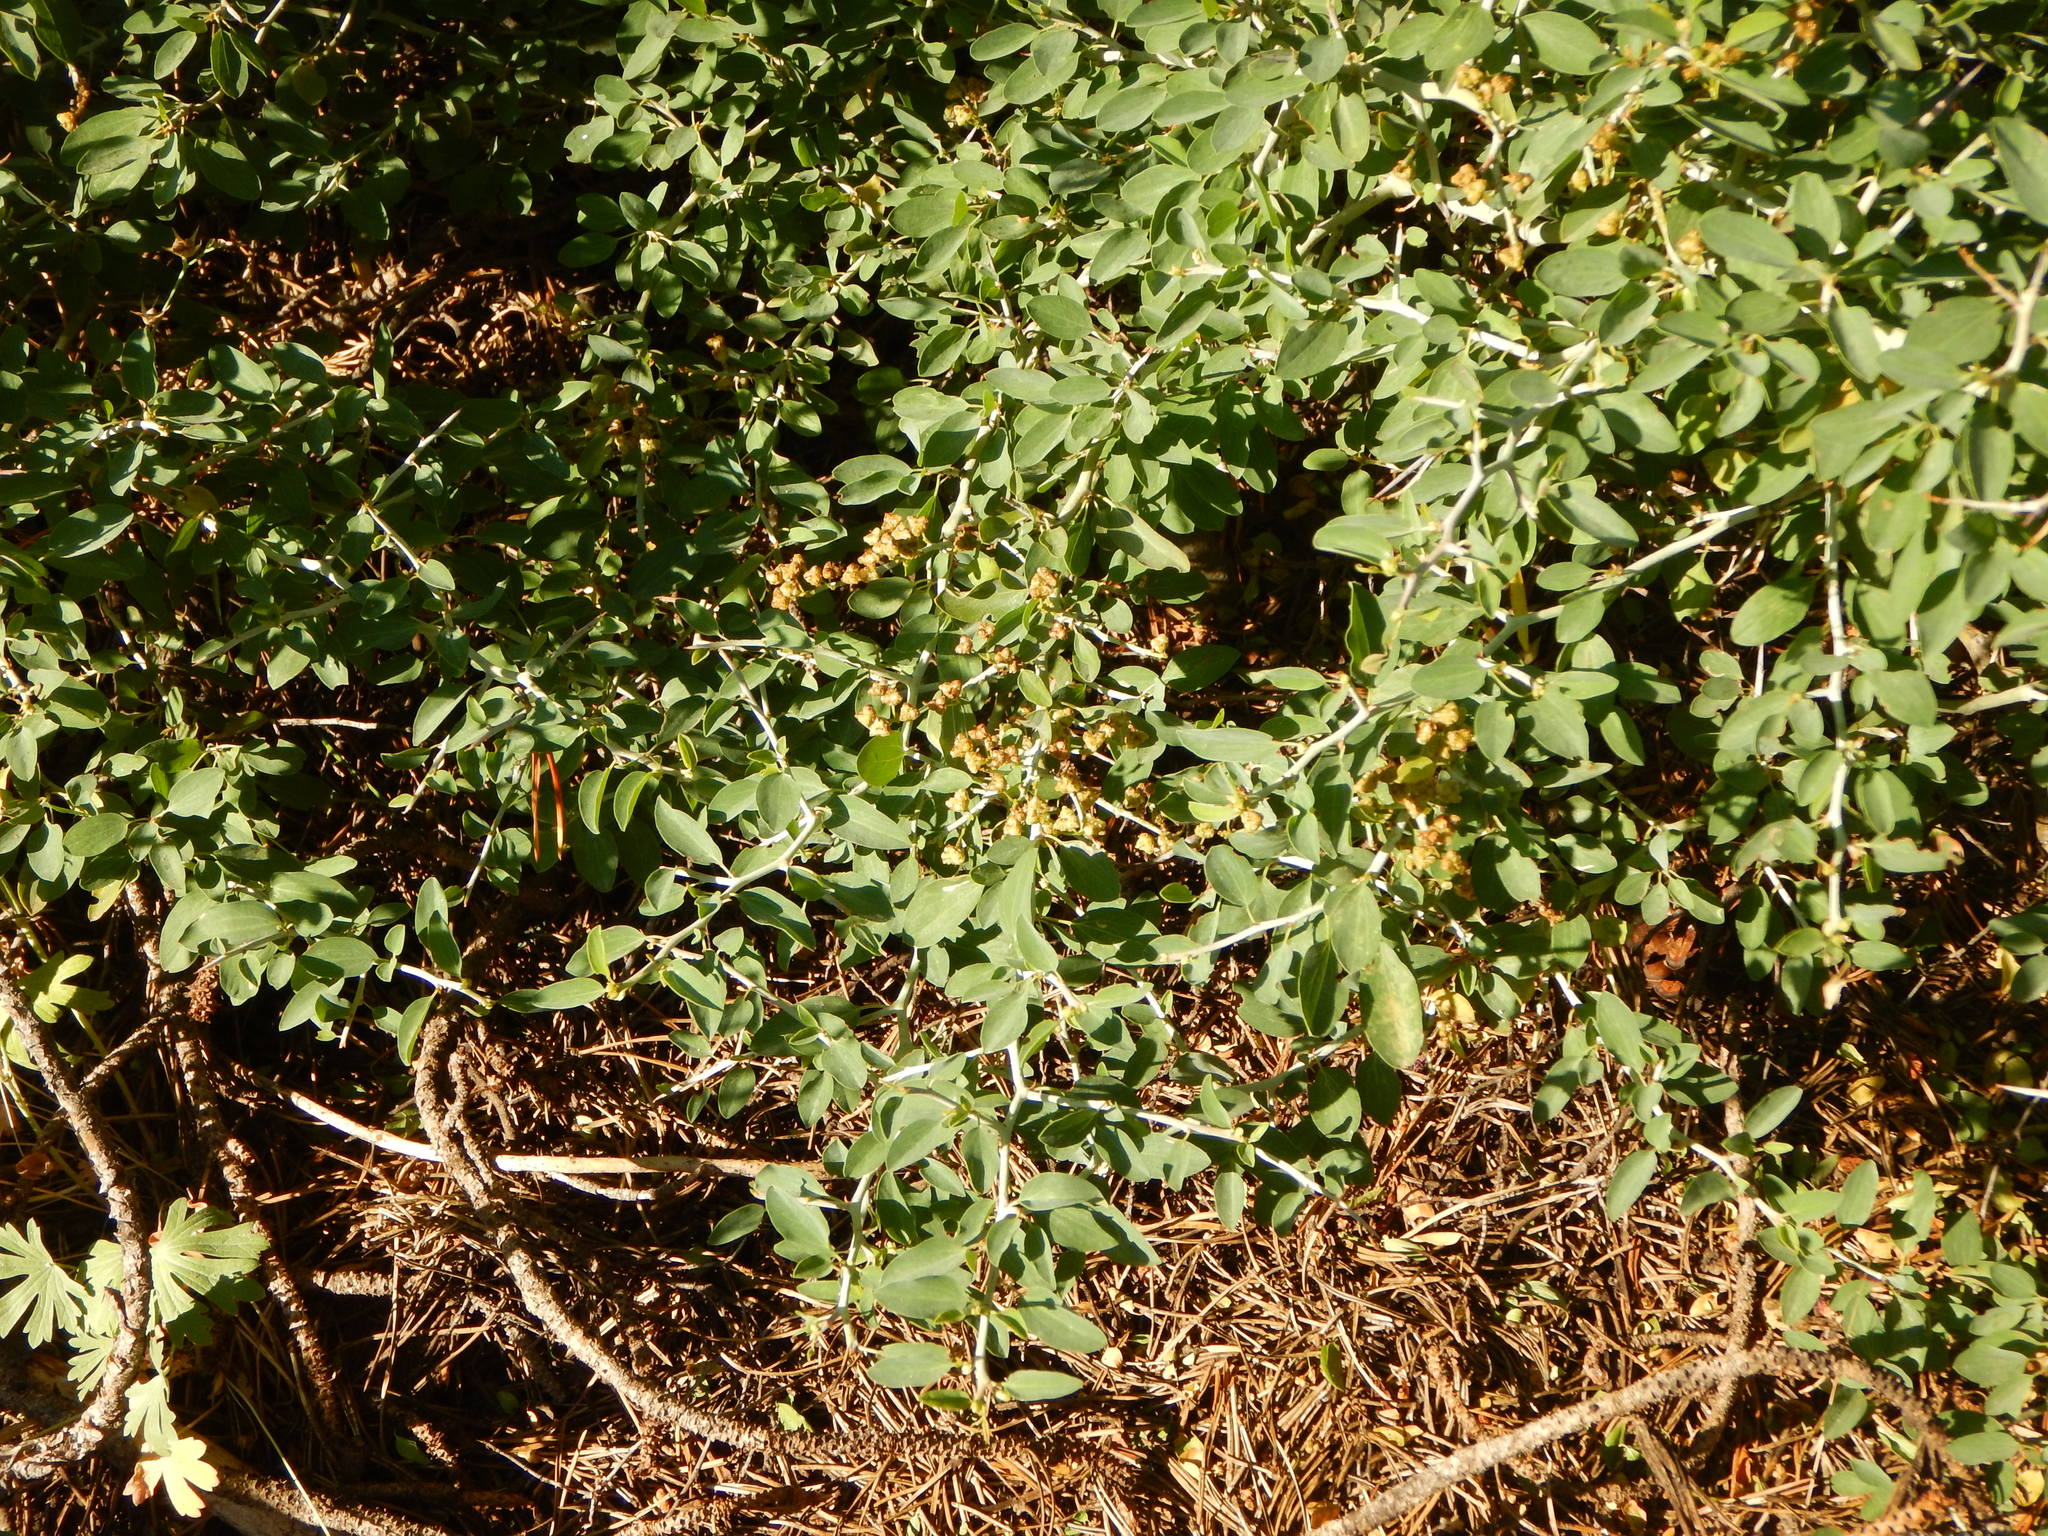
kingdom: Plantae
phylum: Tracheophyta
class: Magnoliopsida
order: Rosales
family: Rhamnaceae
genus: Ceanothus
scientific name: Ceanothus cordulatus
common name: Mountain whitethorn
